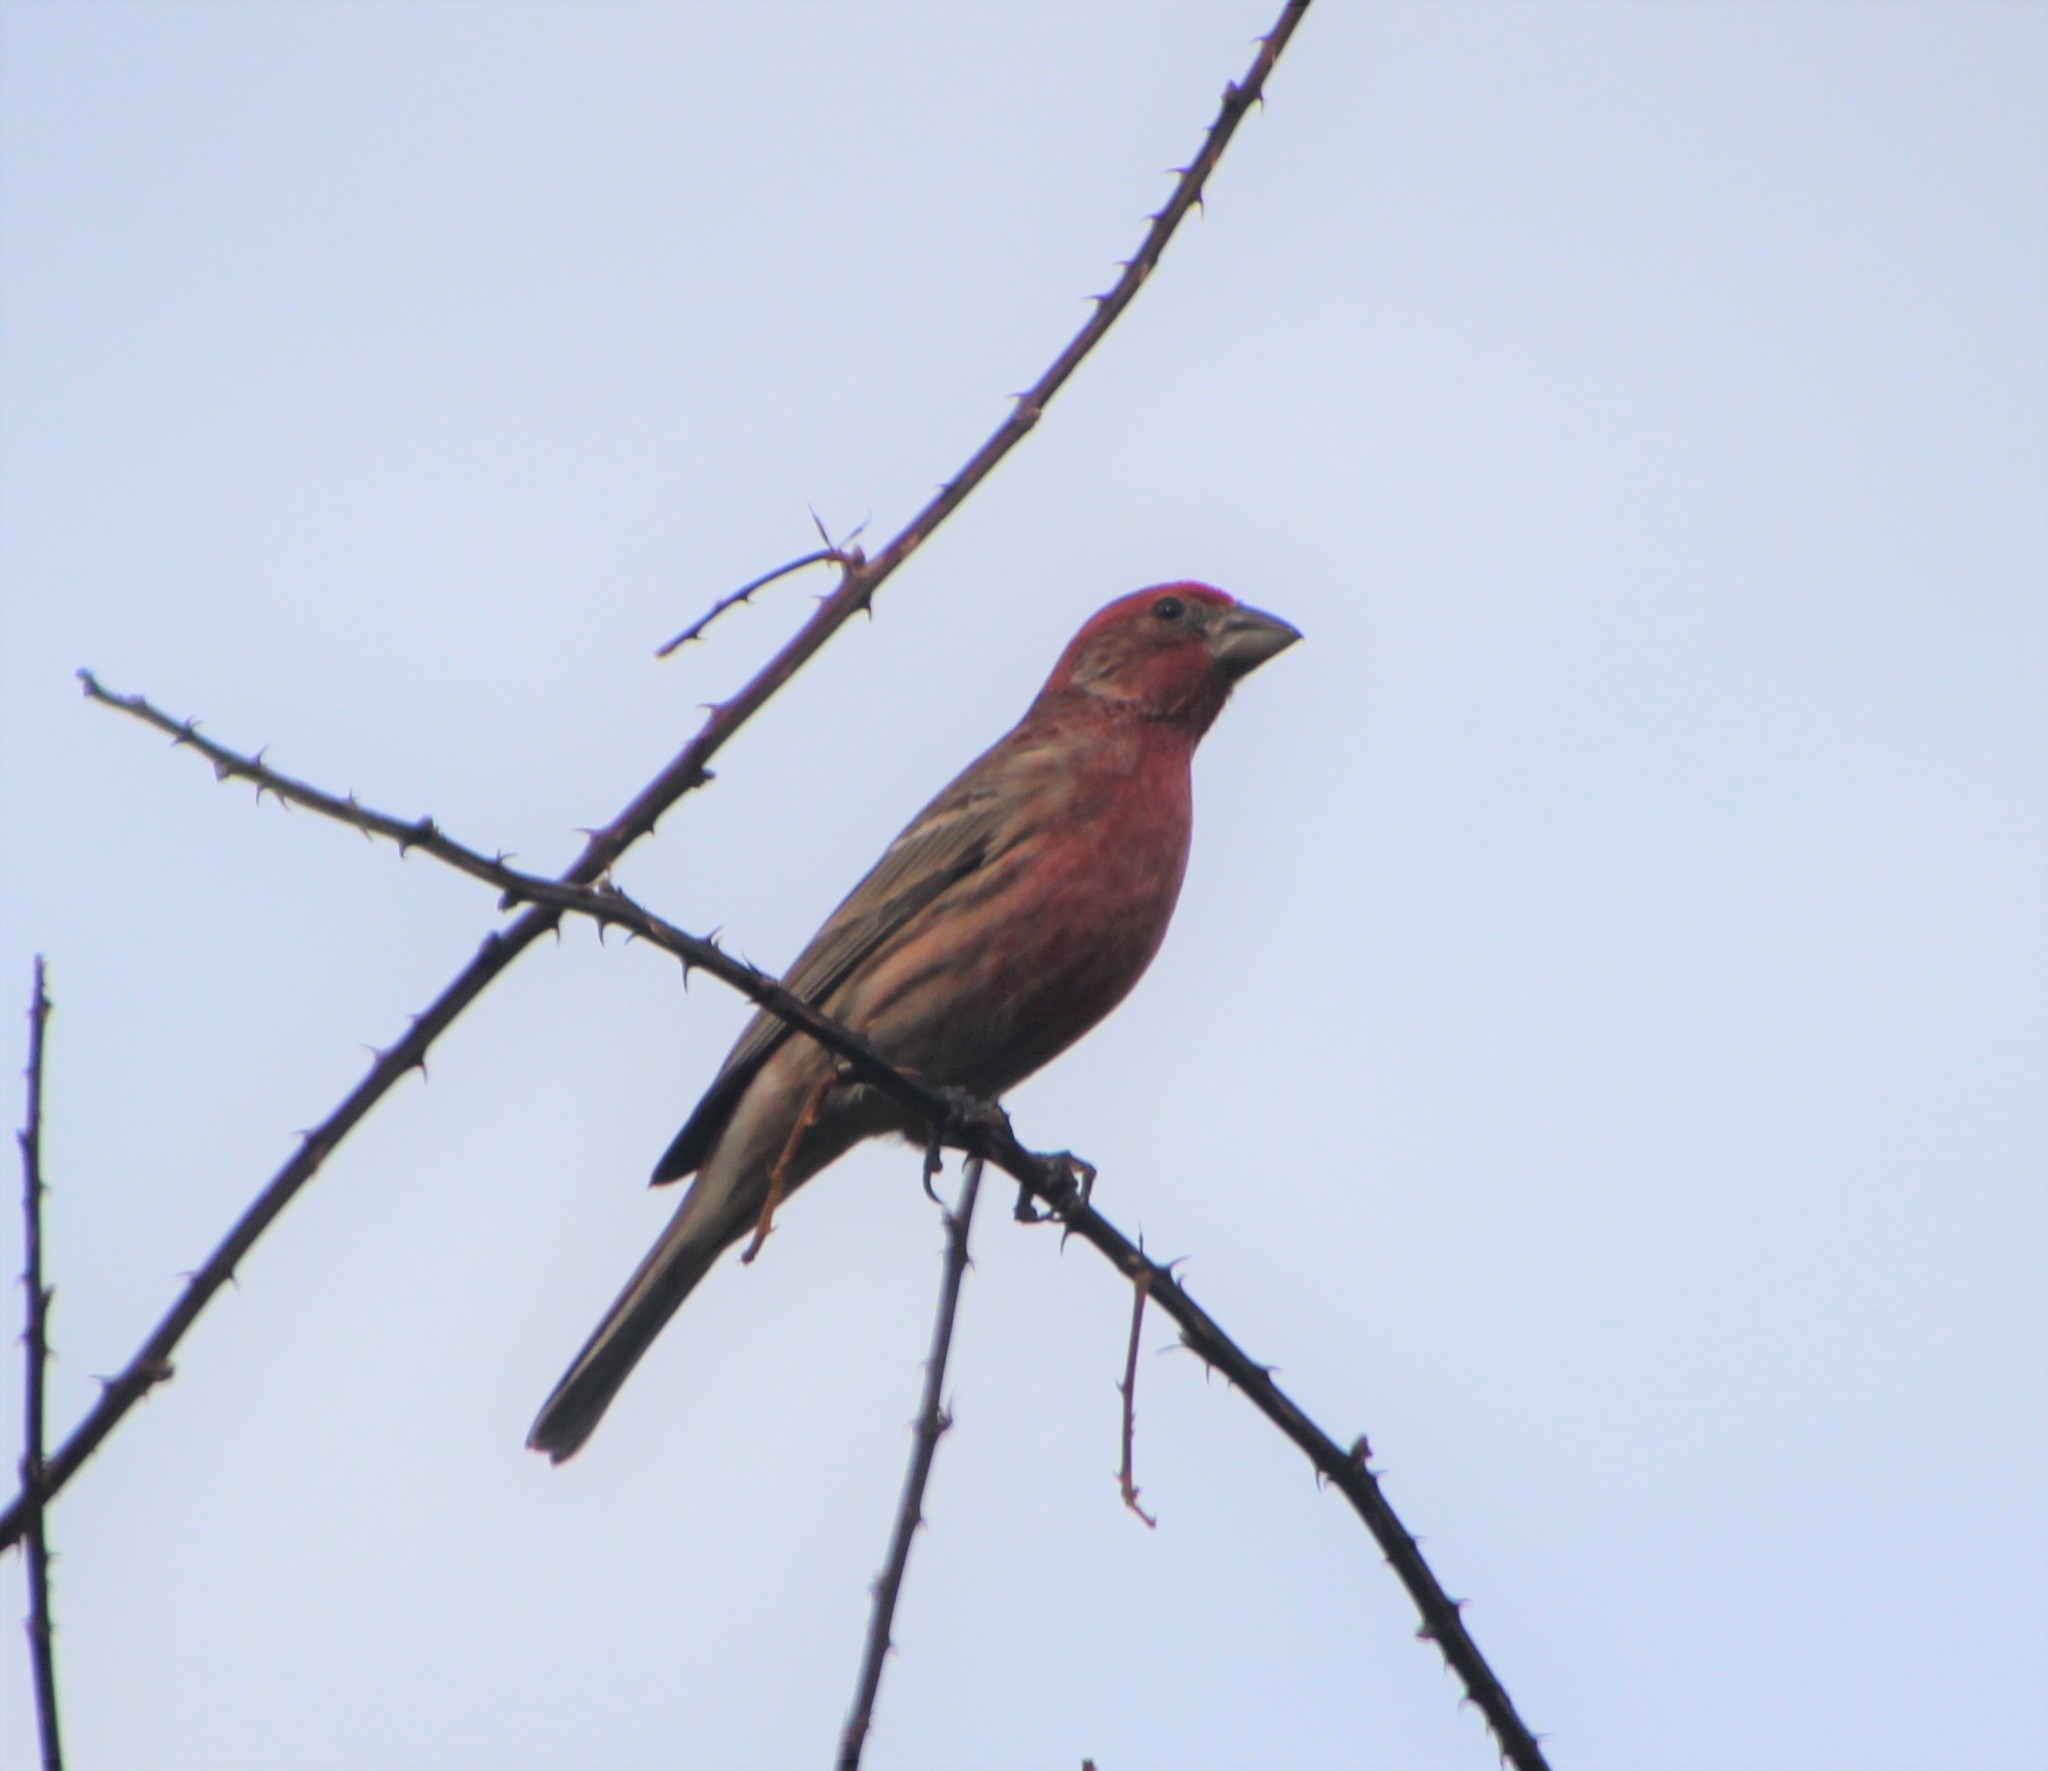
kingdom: Animalia
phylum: Chordata
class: Aves
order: Passeriformes
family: Fringillidae
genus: Haemorhous
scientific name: Haemorhous mexicanus
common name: House finch
